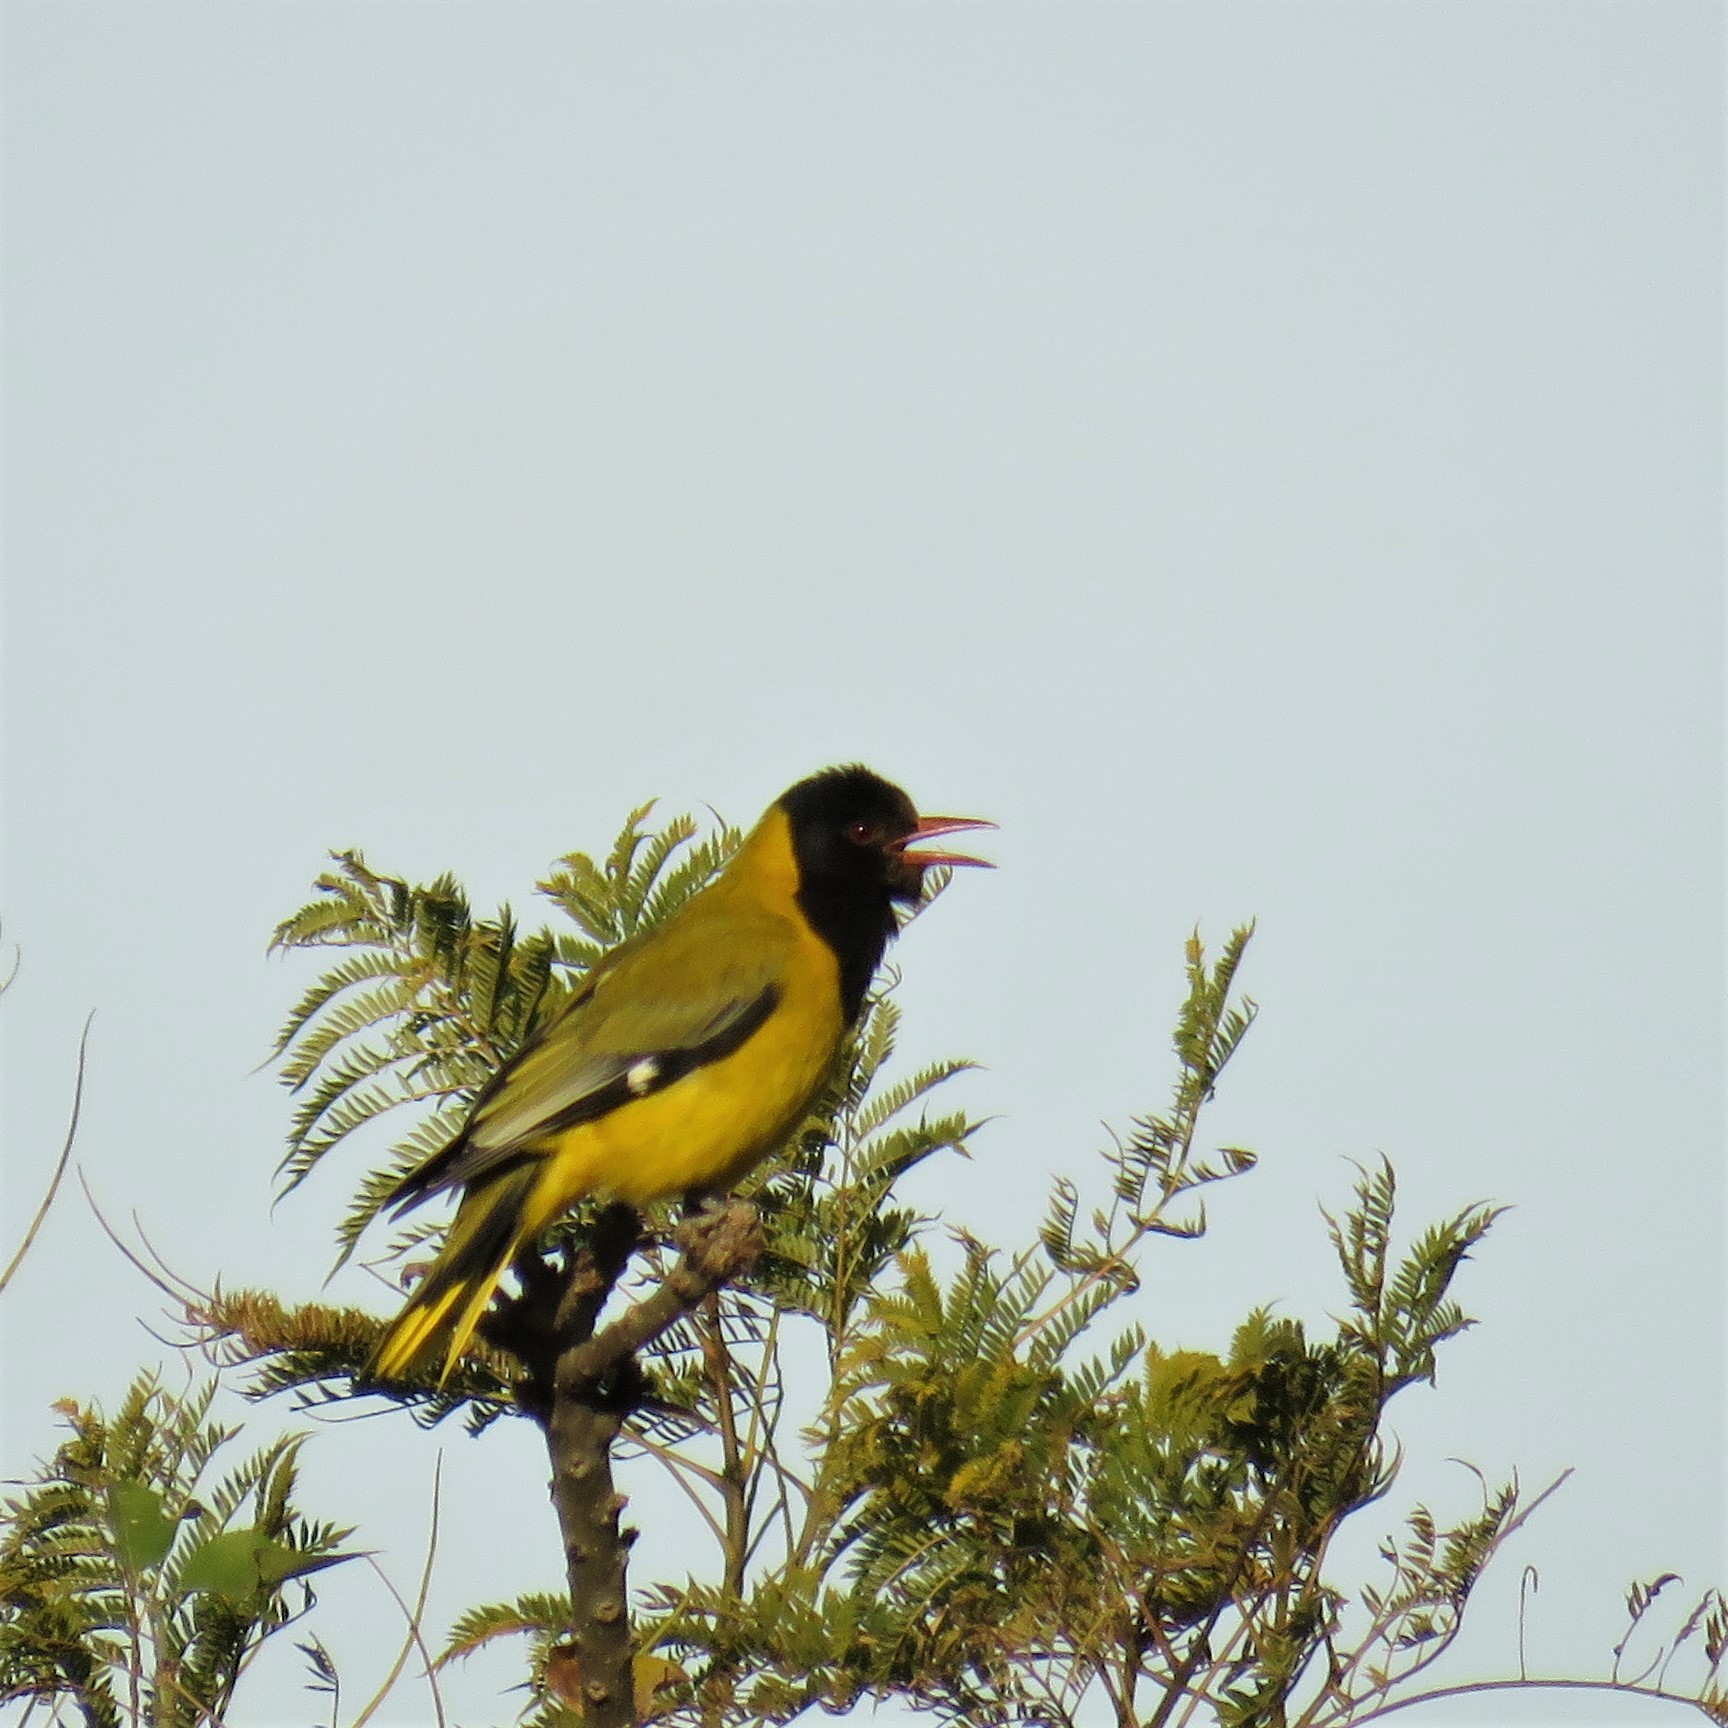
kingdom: Animalia
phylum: Chordata
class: Aves
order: Passeriformes
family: Oriolidae
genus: Oriolus
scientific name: Oriolus larvatus
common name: Black-headed oriole
